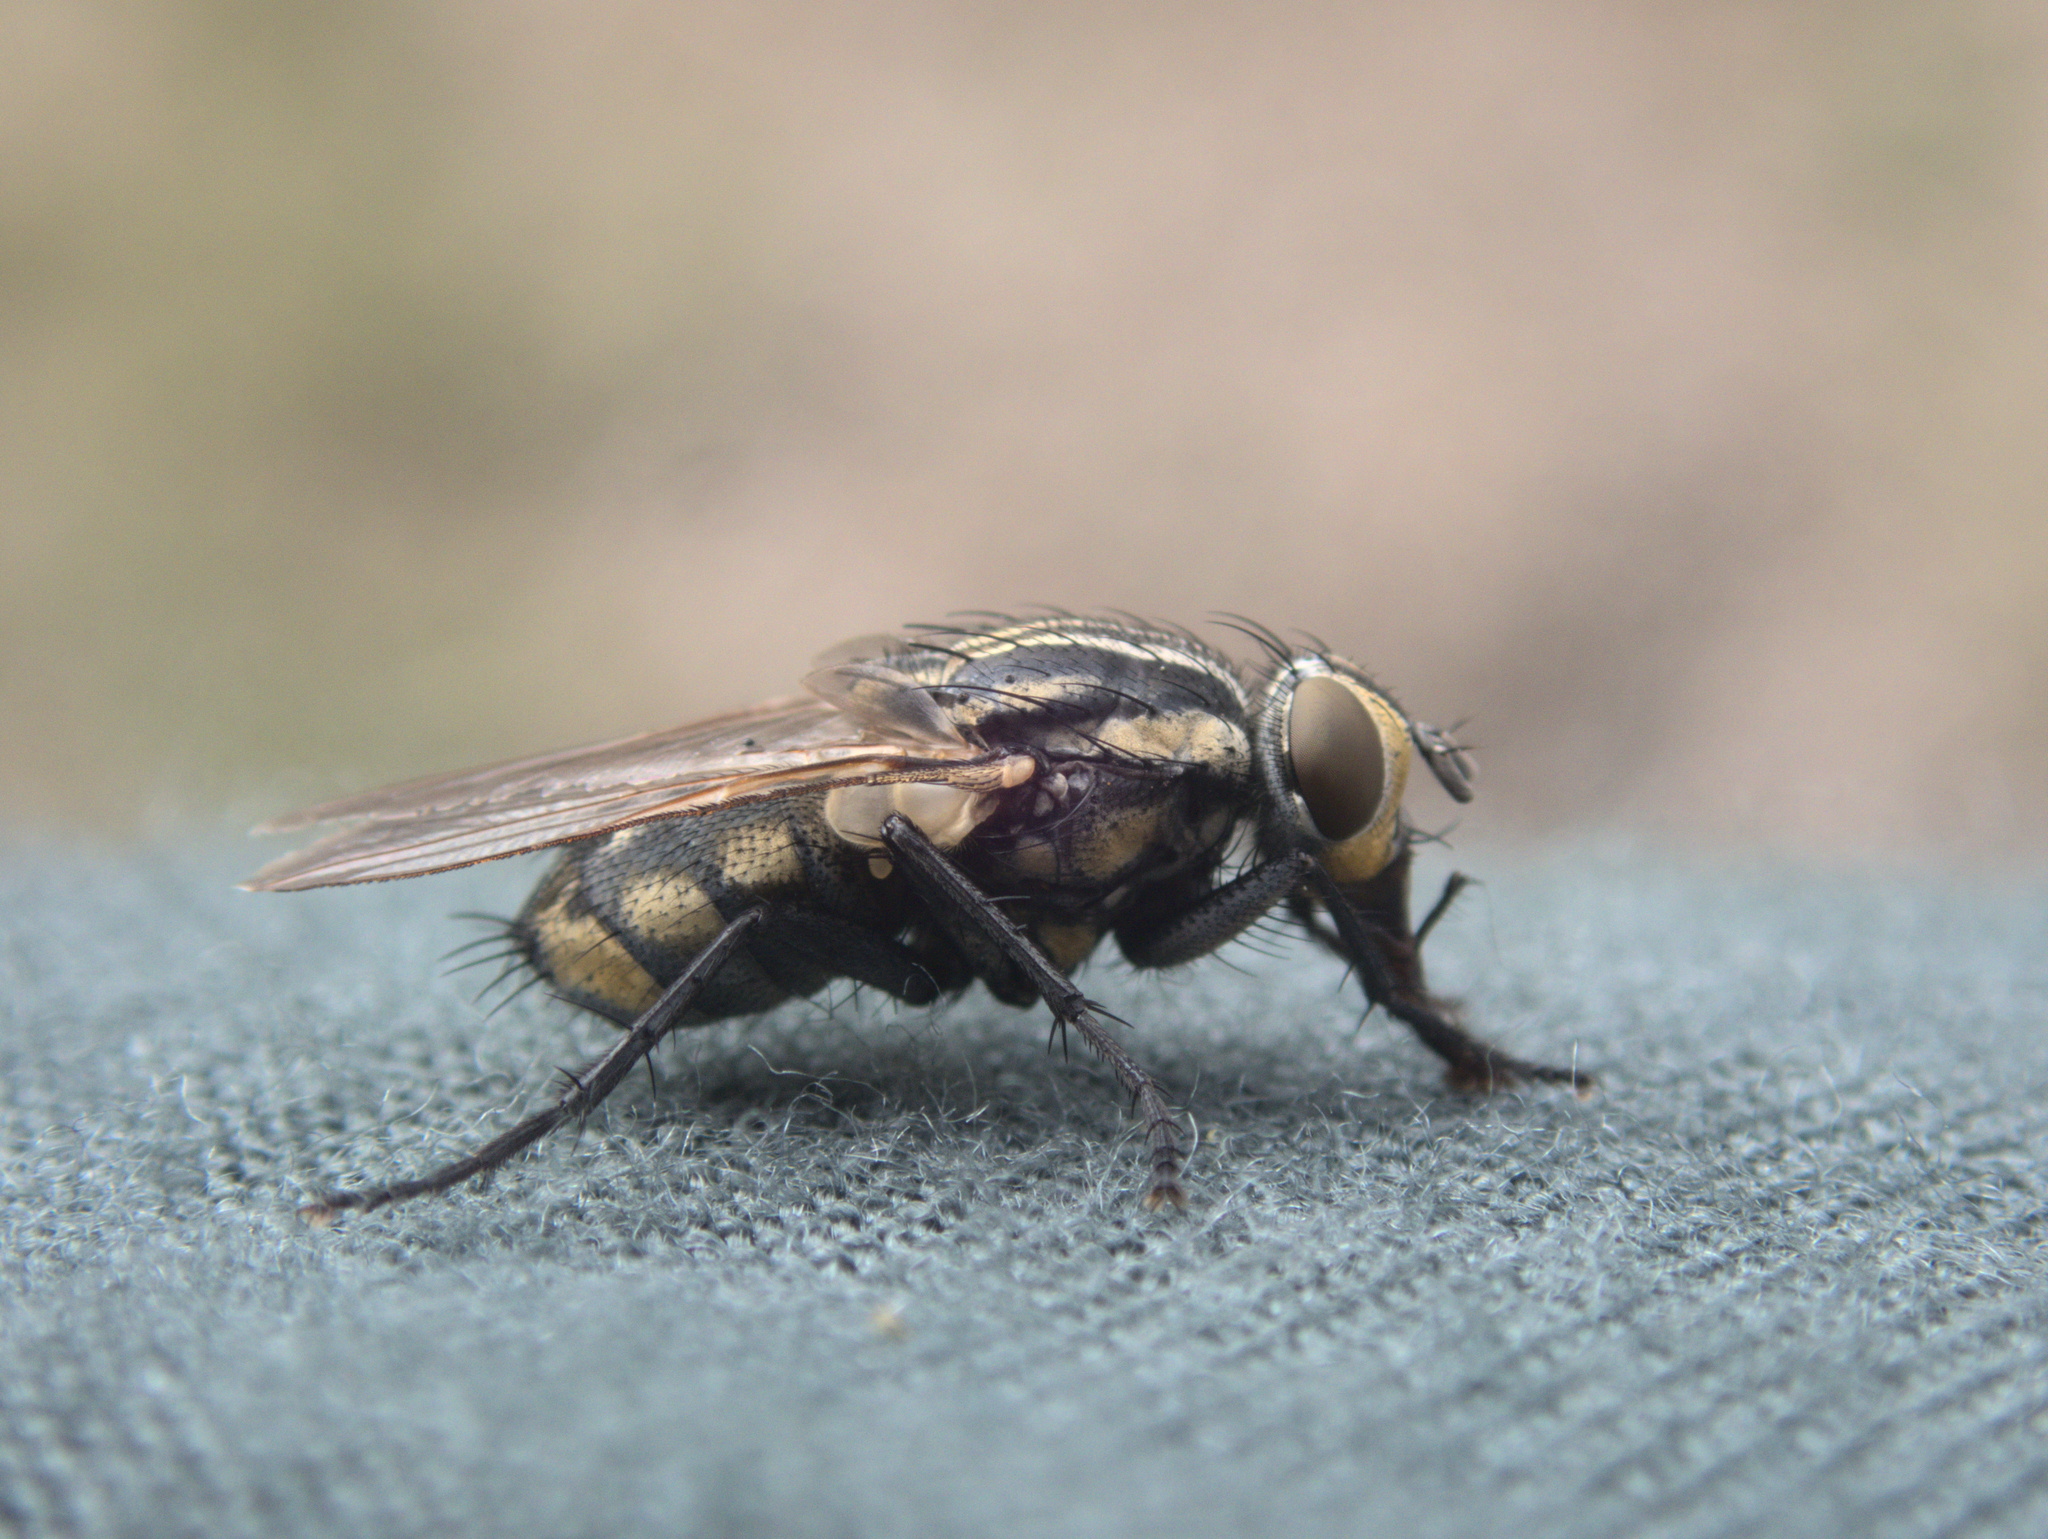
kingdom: Animalia
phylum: Arthropoda
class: Insecta
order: Diptera
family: Sarcophagidae
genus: Oxysarcodexia
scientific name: Oxysarcodexia varia
